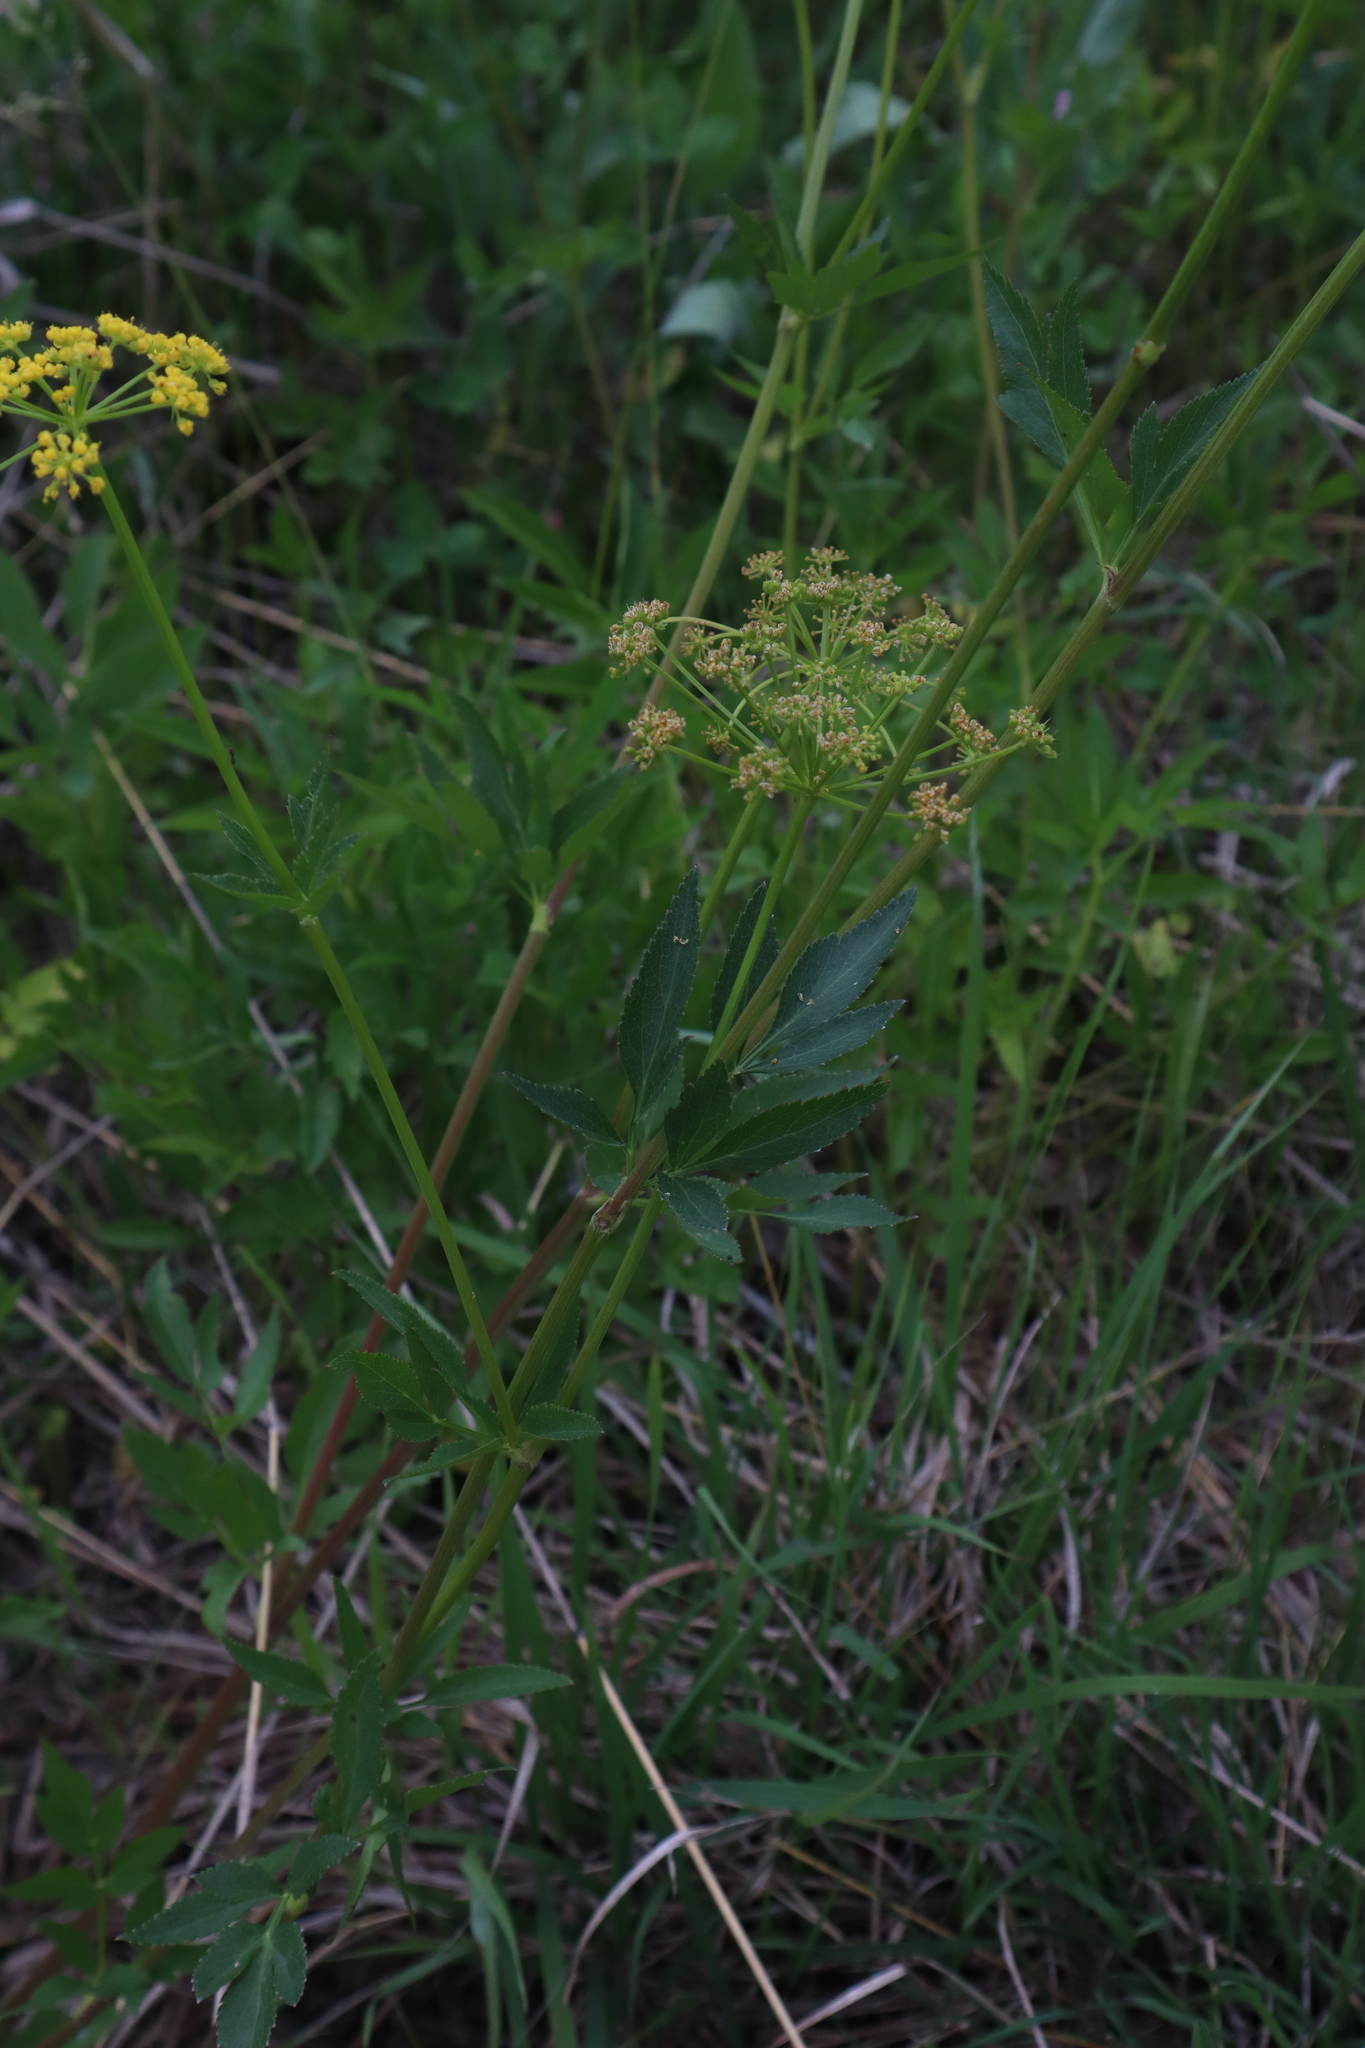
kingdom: Plantae
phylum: Tracheophyta
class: Magnoliopsida
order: Apiales
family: Apiaceae
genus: Zizia
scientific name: Zizia aurea
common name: Golden alexanders
